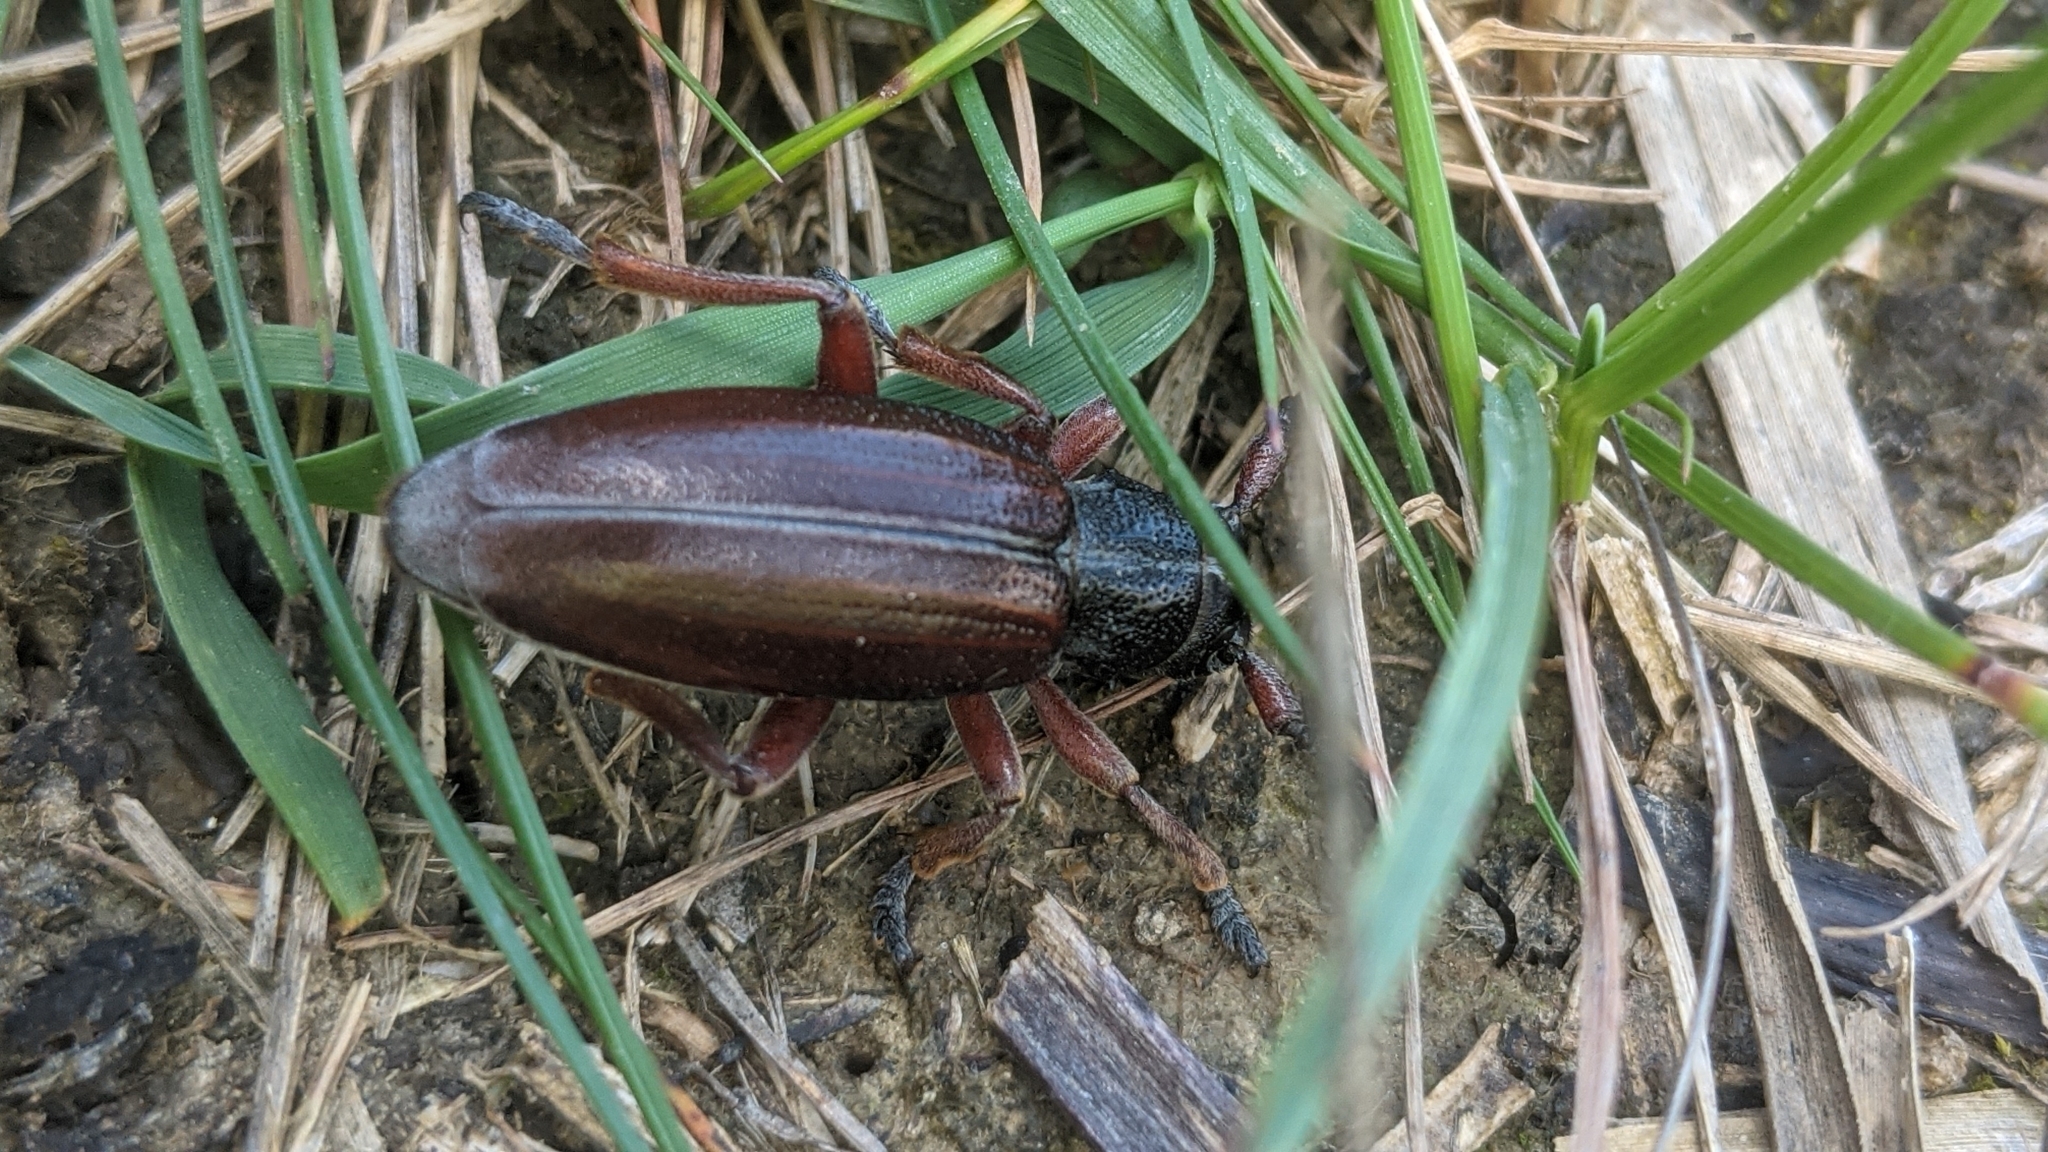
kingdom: Animalia
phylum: Arthropoda
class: Insecta
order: Coleoptera
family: Cerambycidae
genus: Dorcadion
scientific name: Dorcadion fulvum
